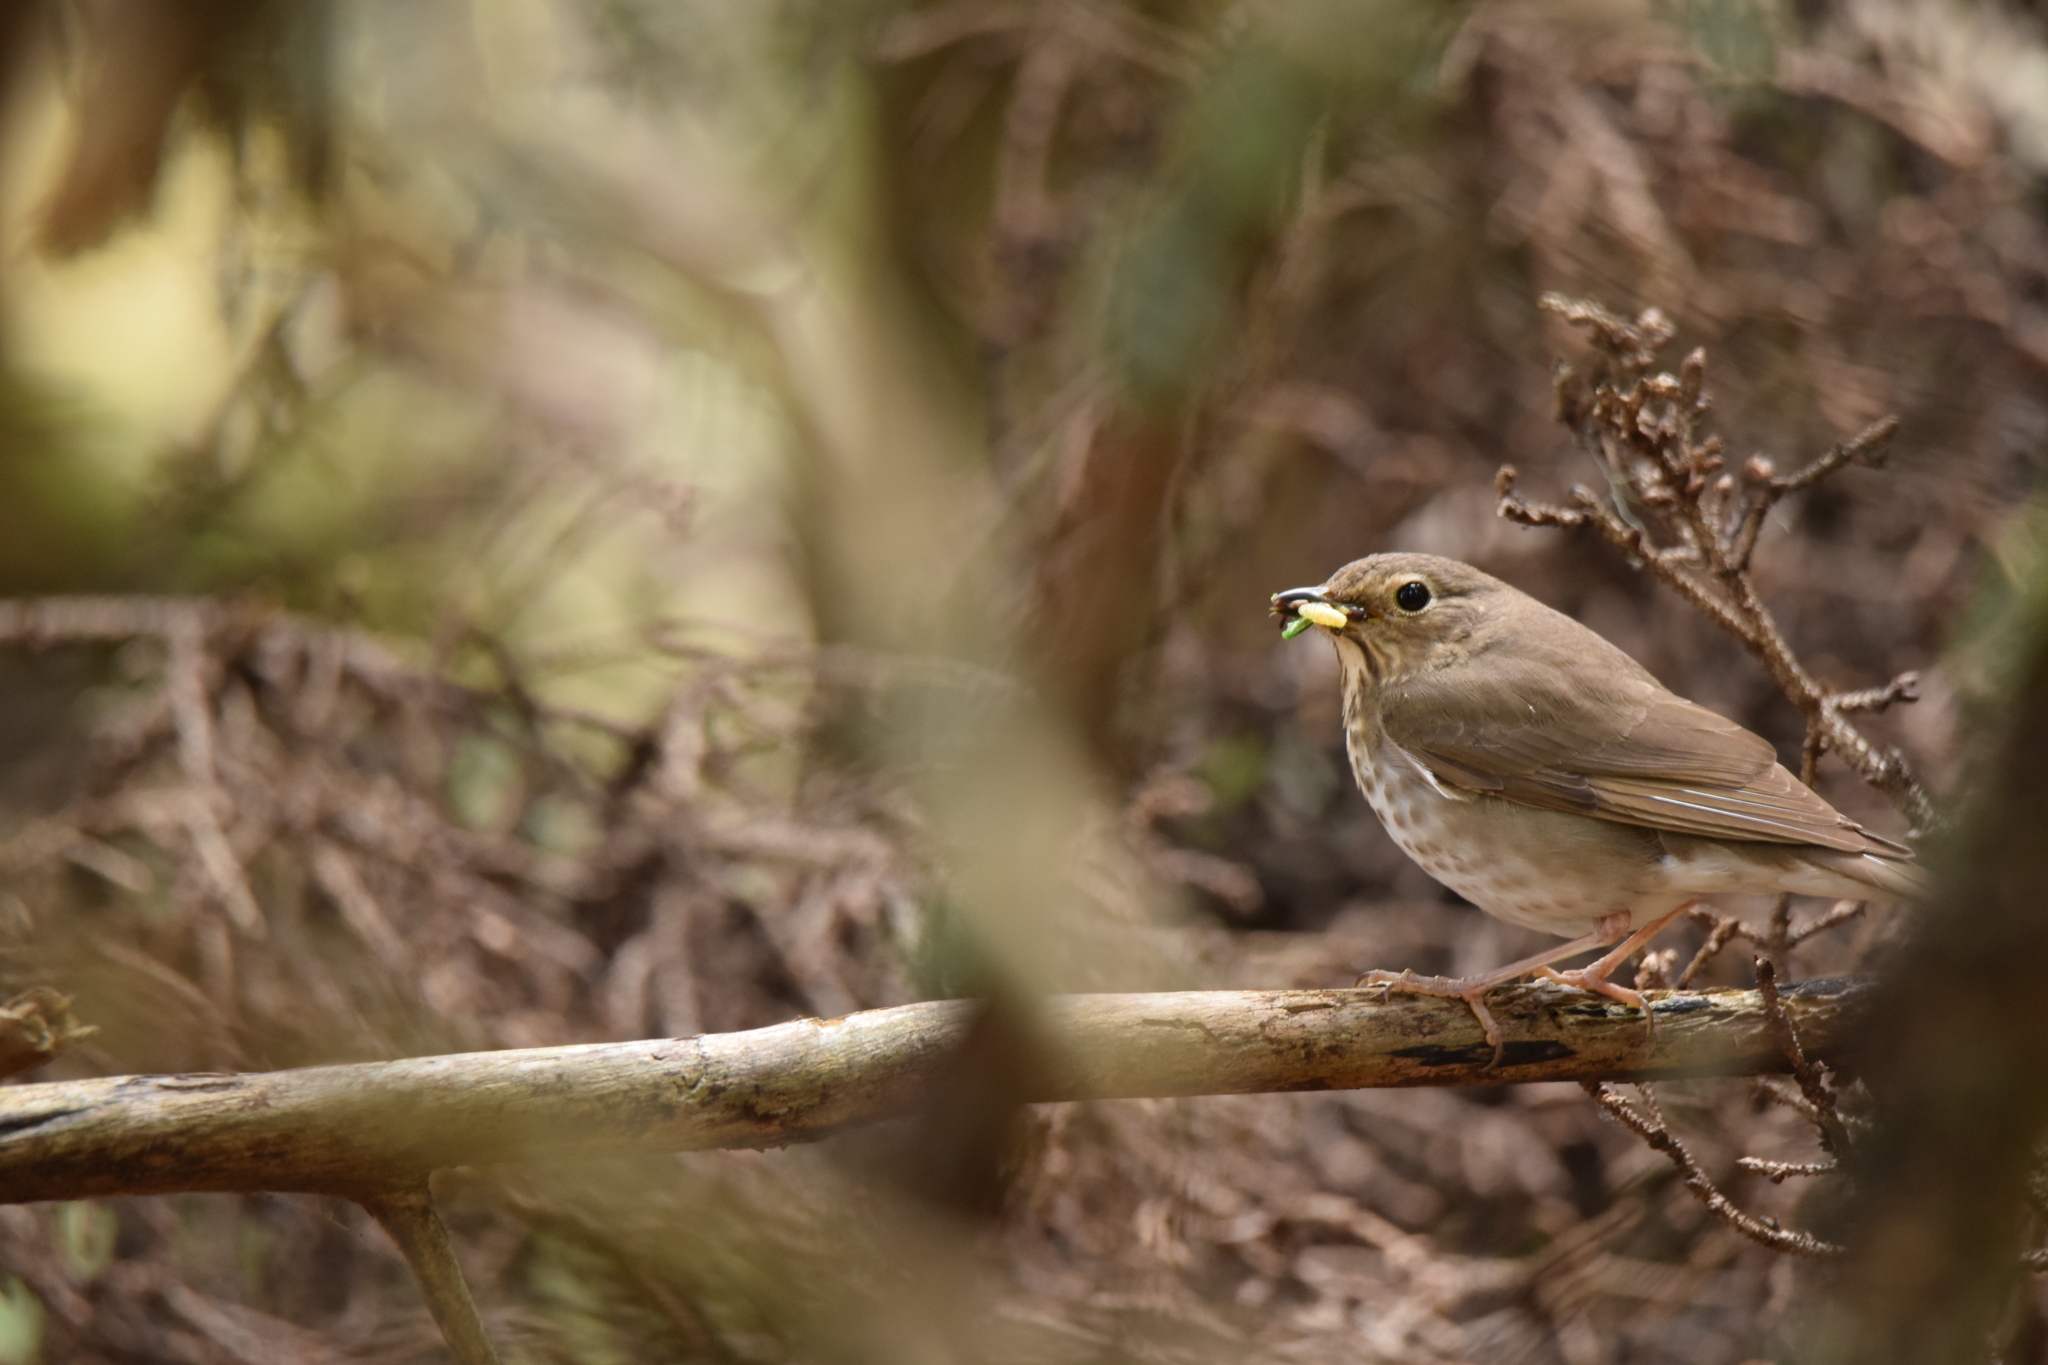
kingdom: Animalia
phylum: Chordata
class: Aves
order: Passeriformes
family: Turdidae
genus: Catharus
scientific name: Catharus ustulatus
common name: Swainson's thrush
